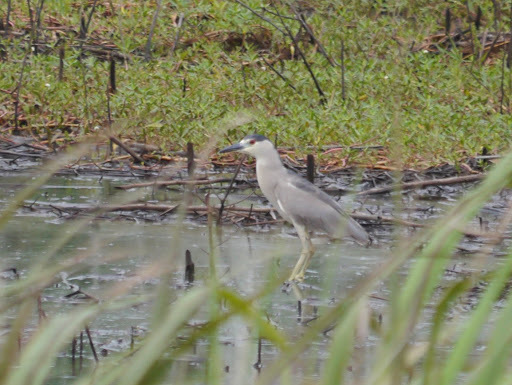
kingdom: Animalia
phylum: Chordata
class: Aves
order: Pelecaniformes
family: Ardeidae
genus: Nycticorax
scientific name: Nycticorax nycticorax
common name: Black-crowned night heron
